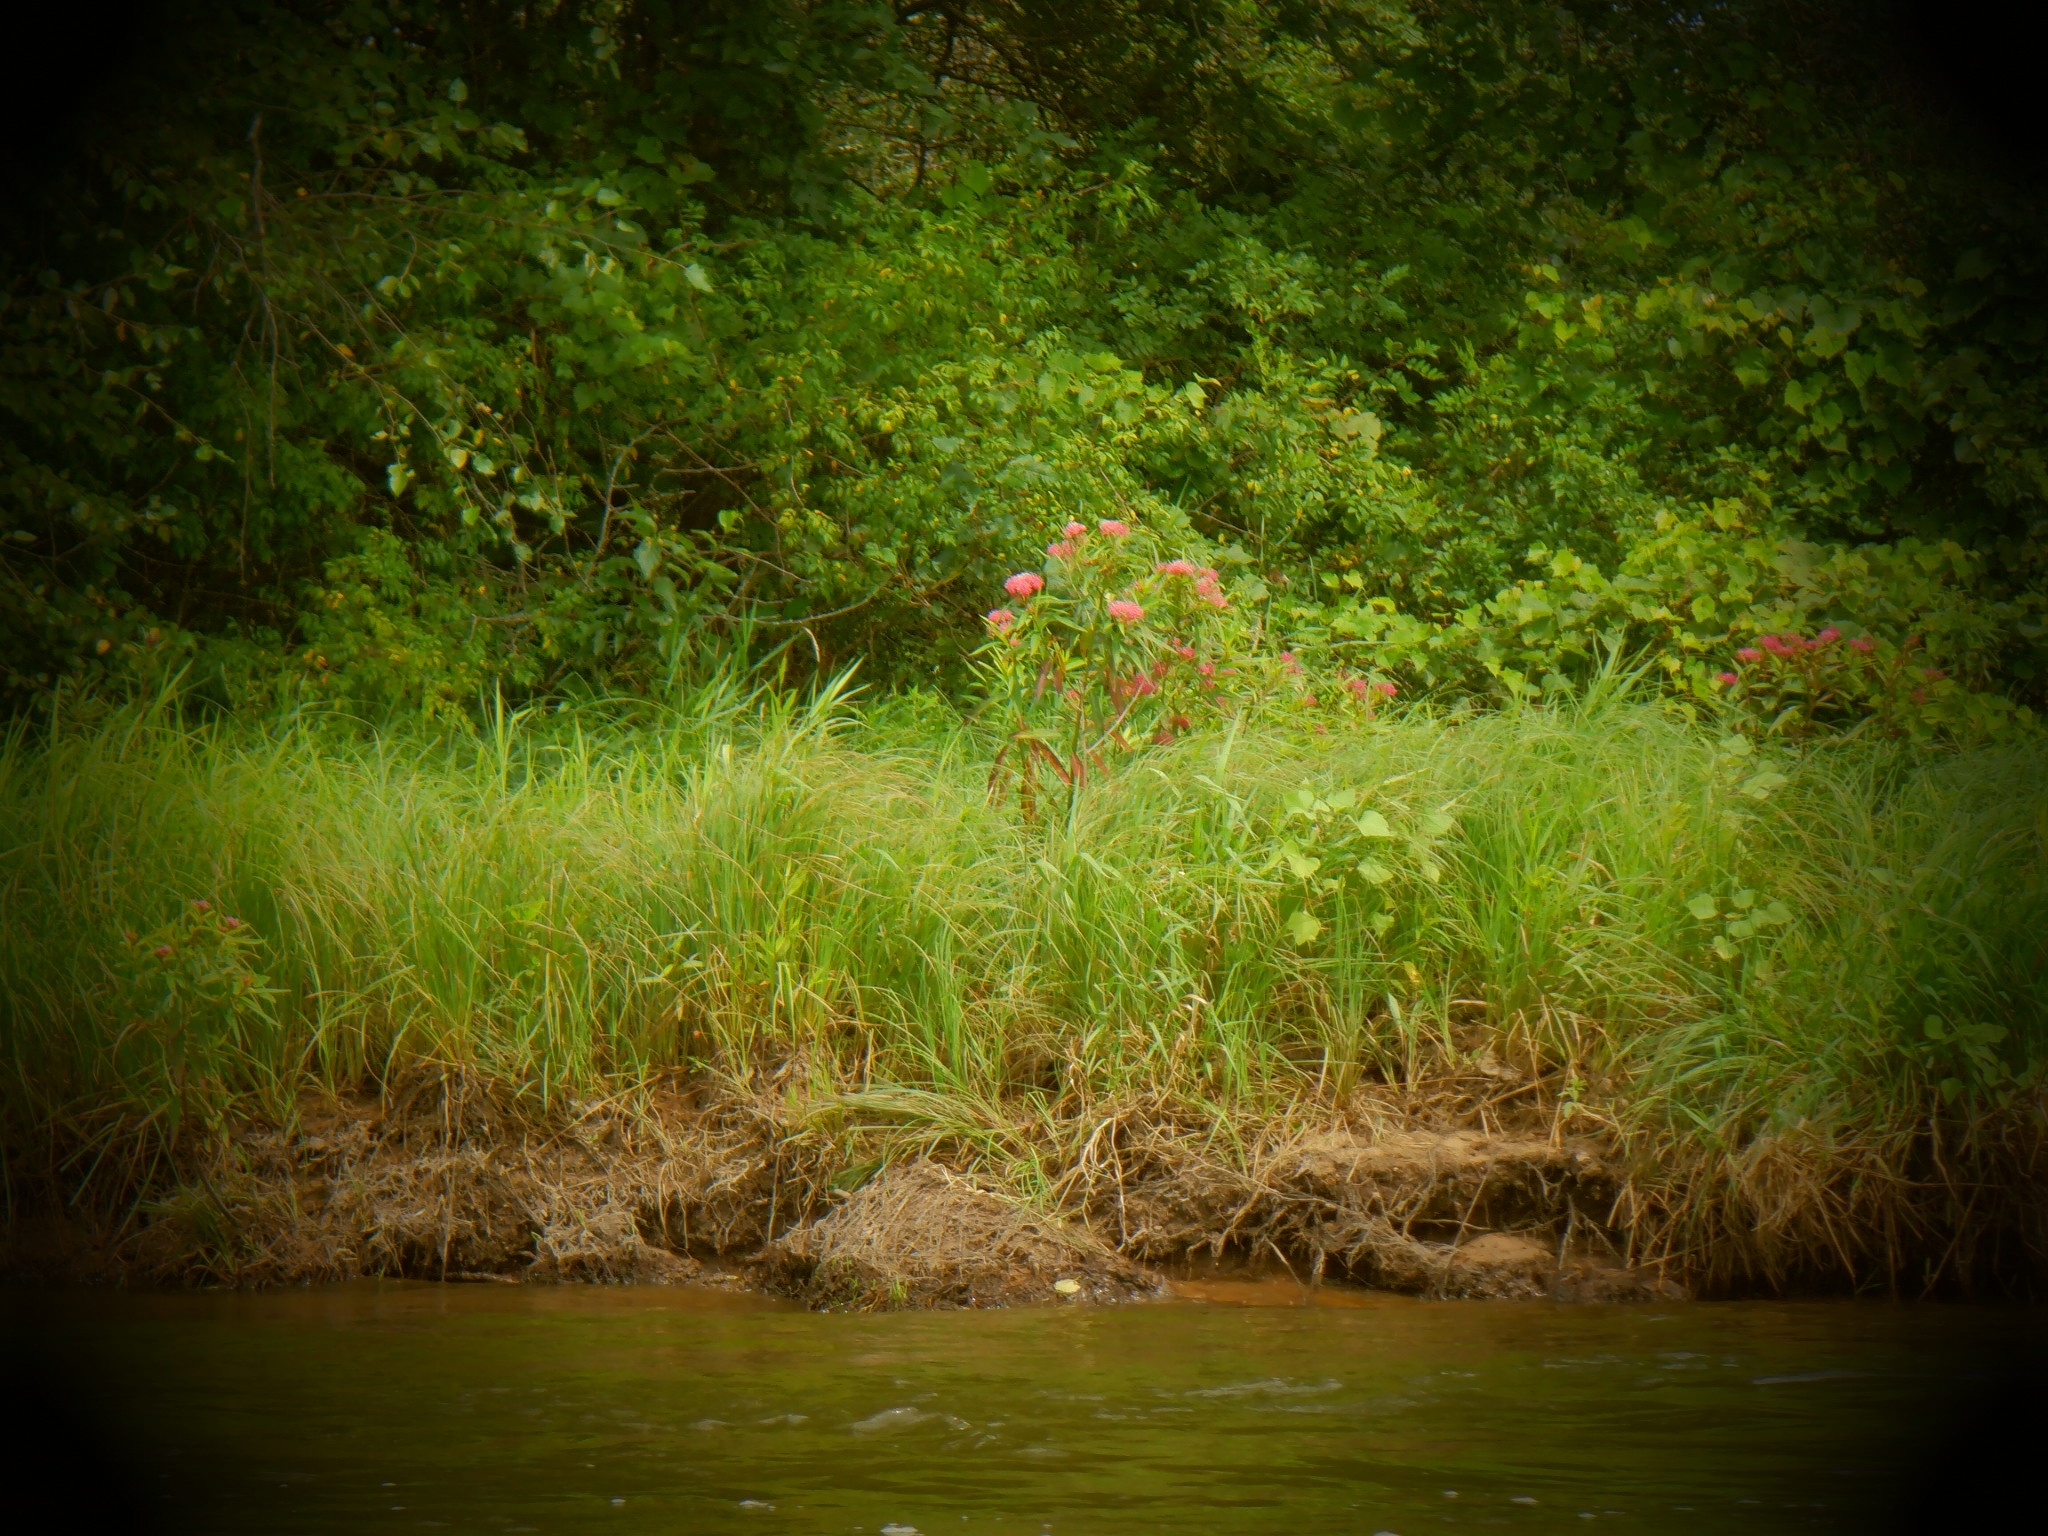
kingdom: Plantae
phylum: Tracheophyta
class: Magnoliopsida
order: Gentianales
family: Apocynaceae
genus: Asclepias
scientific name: Asclepias incarnata
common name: Swamp milkweed
